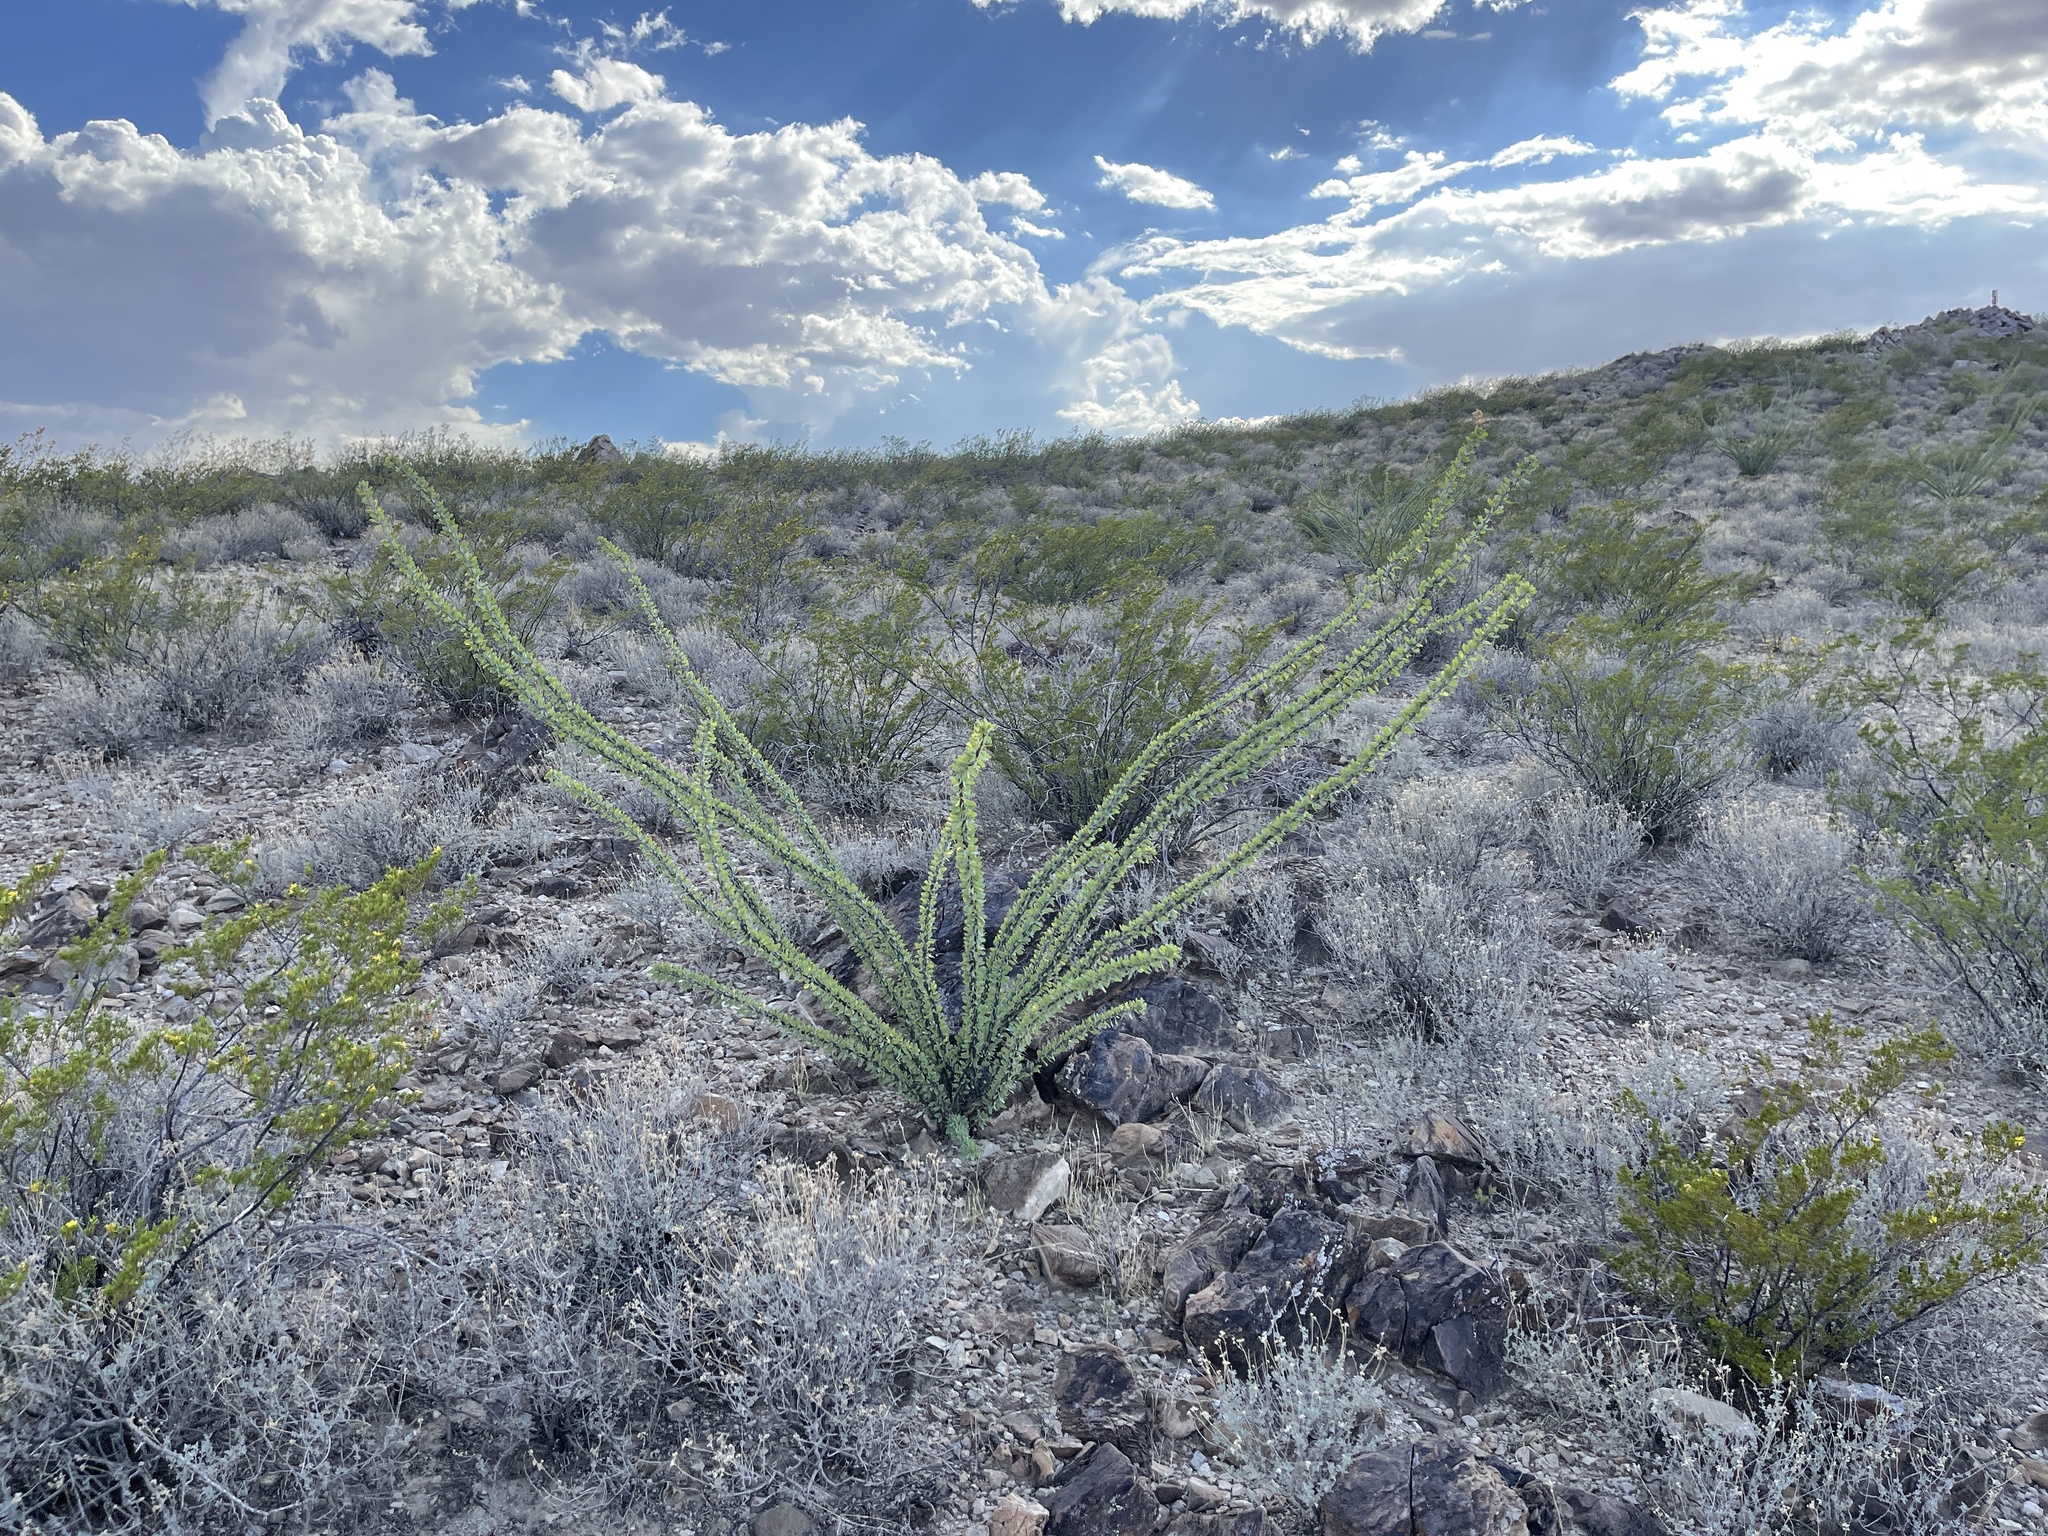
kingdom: Plantae
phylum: Tracheophyta
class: Magnoliopsida
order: Ericales
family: Fouquieriaceae
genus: Fouquieria
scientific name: Fouquieria splendens
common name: Vine-cactus
